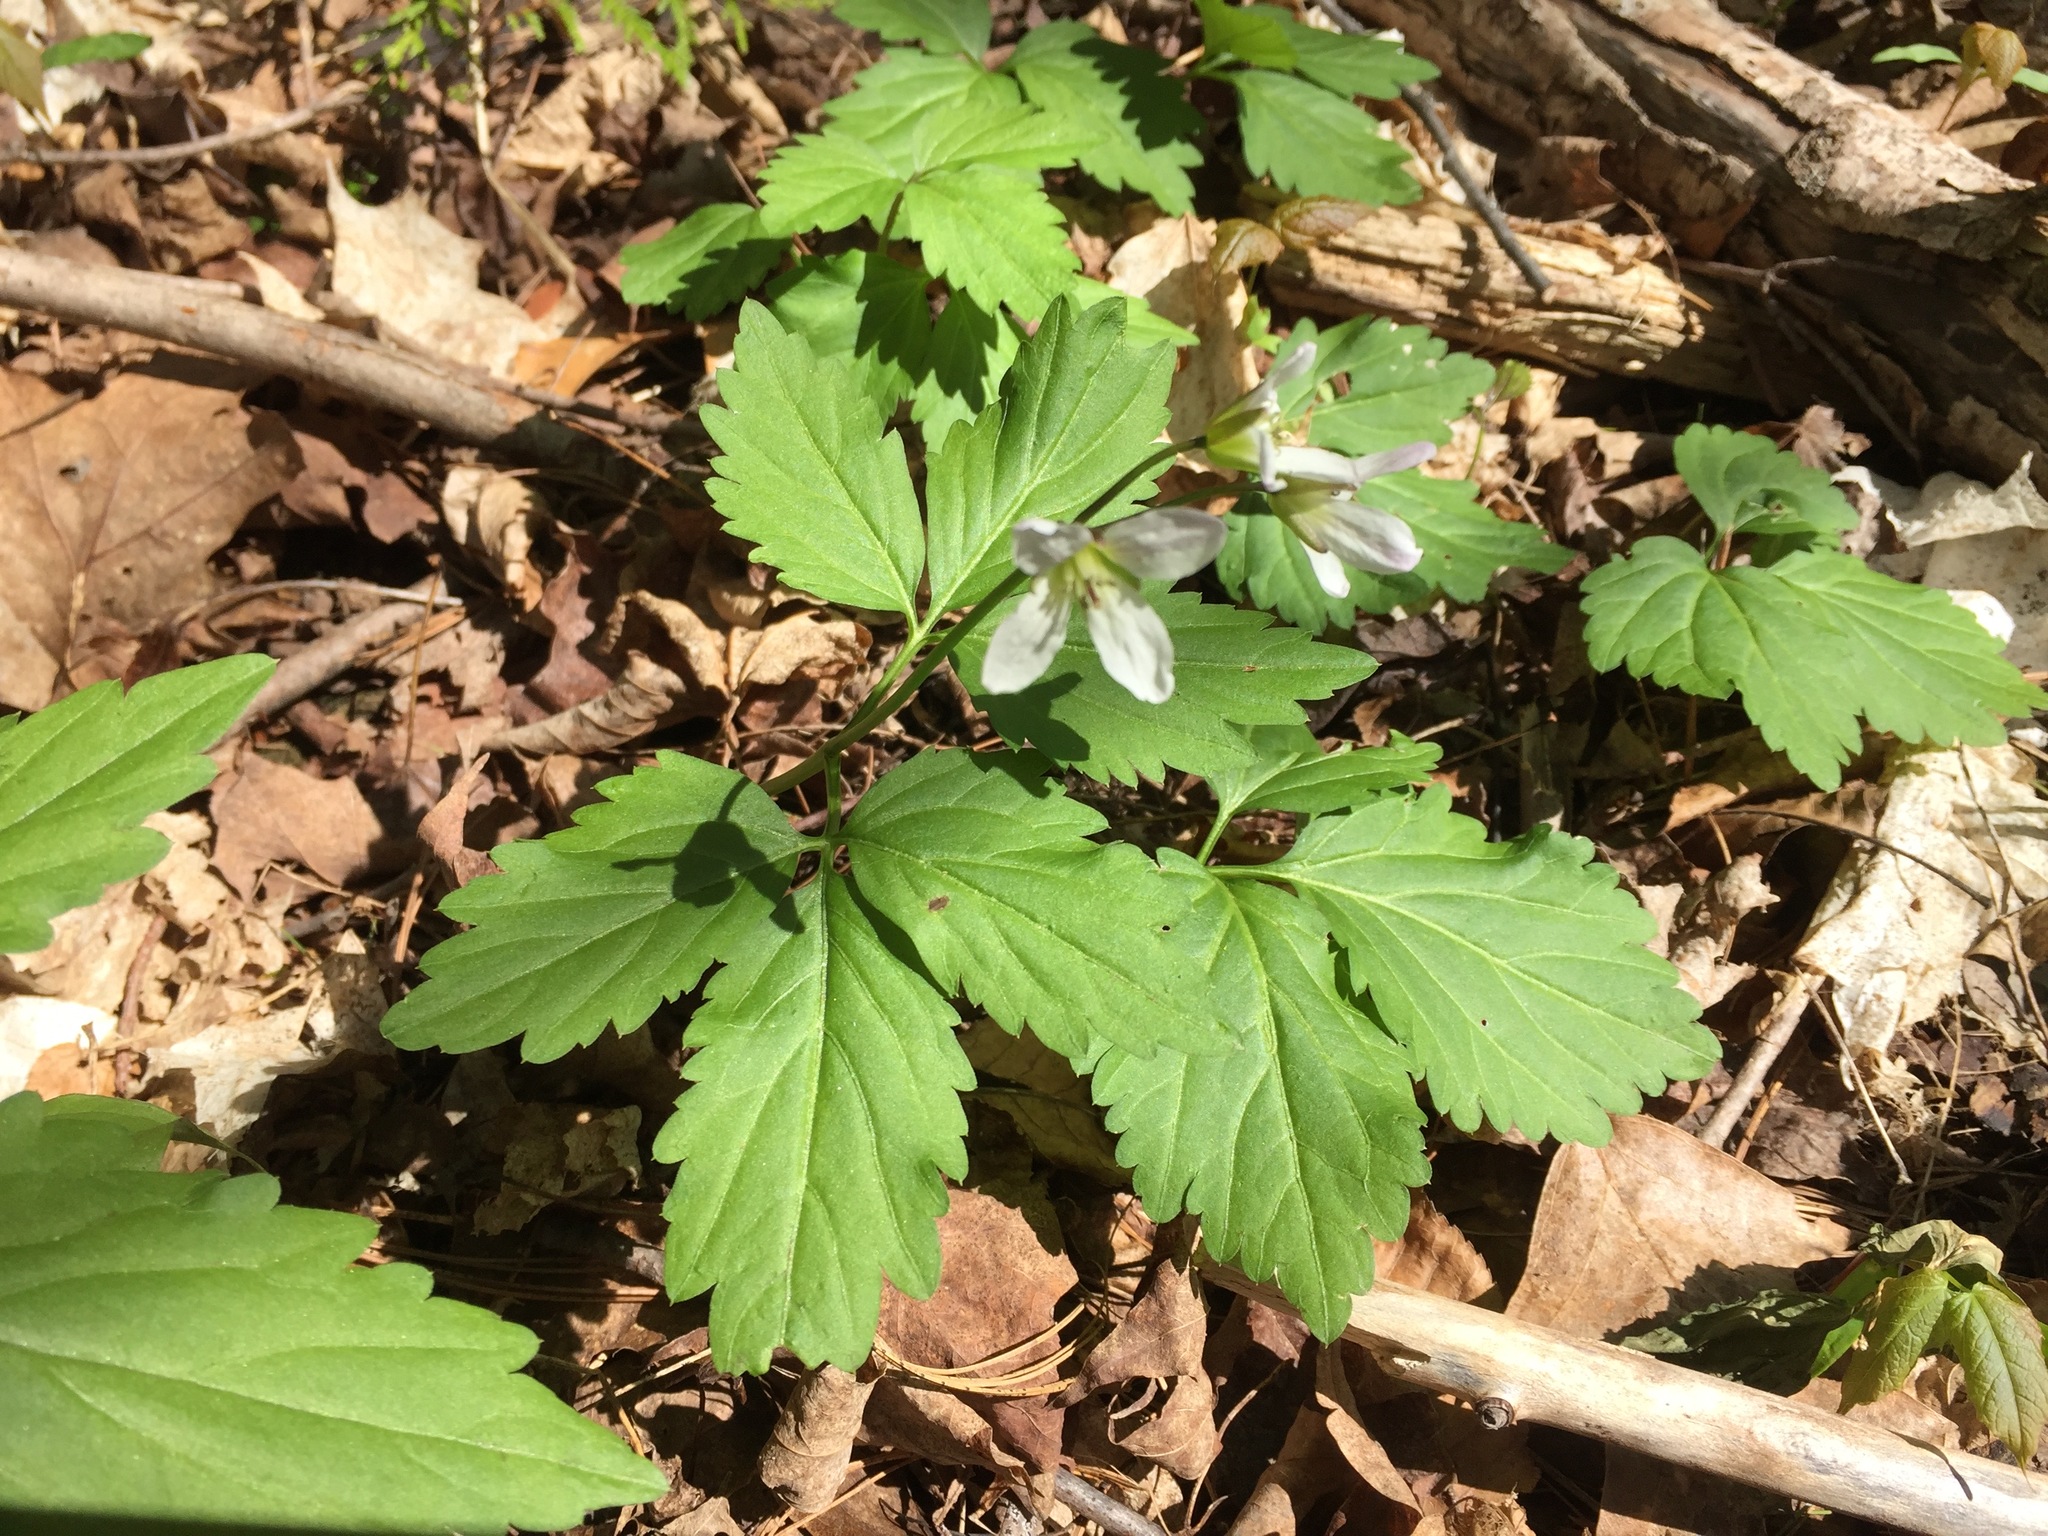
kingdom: Plantae
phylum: Tracheophyta
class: Magnoliopsida
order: Brassicales
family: Brassicaceae
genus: Cardamine
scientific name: Cardamine diphylla
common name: Broad-leaved toothwort
